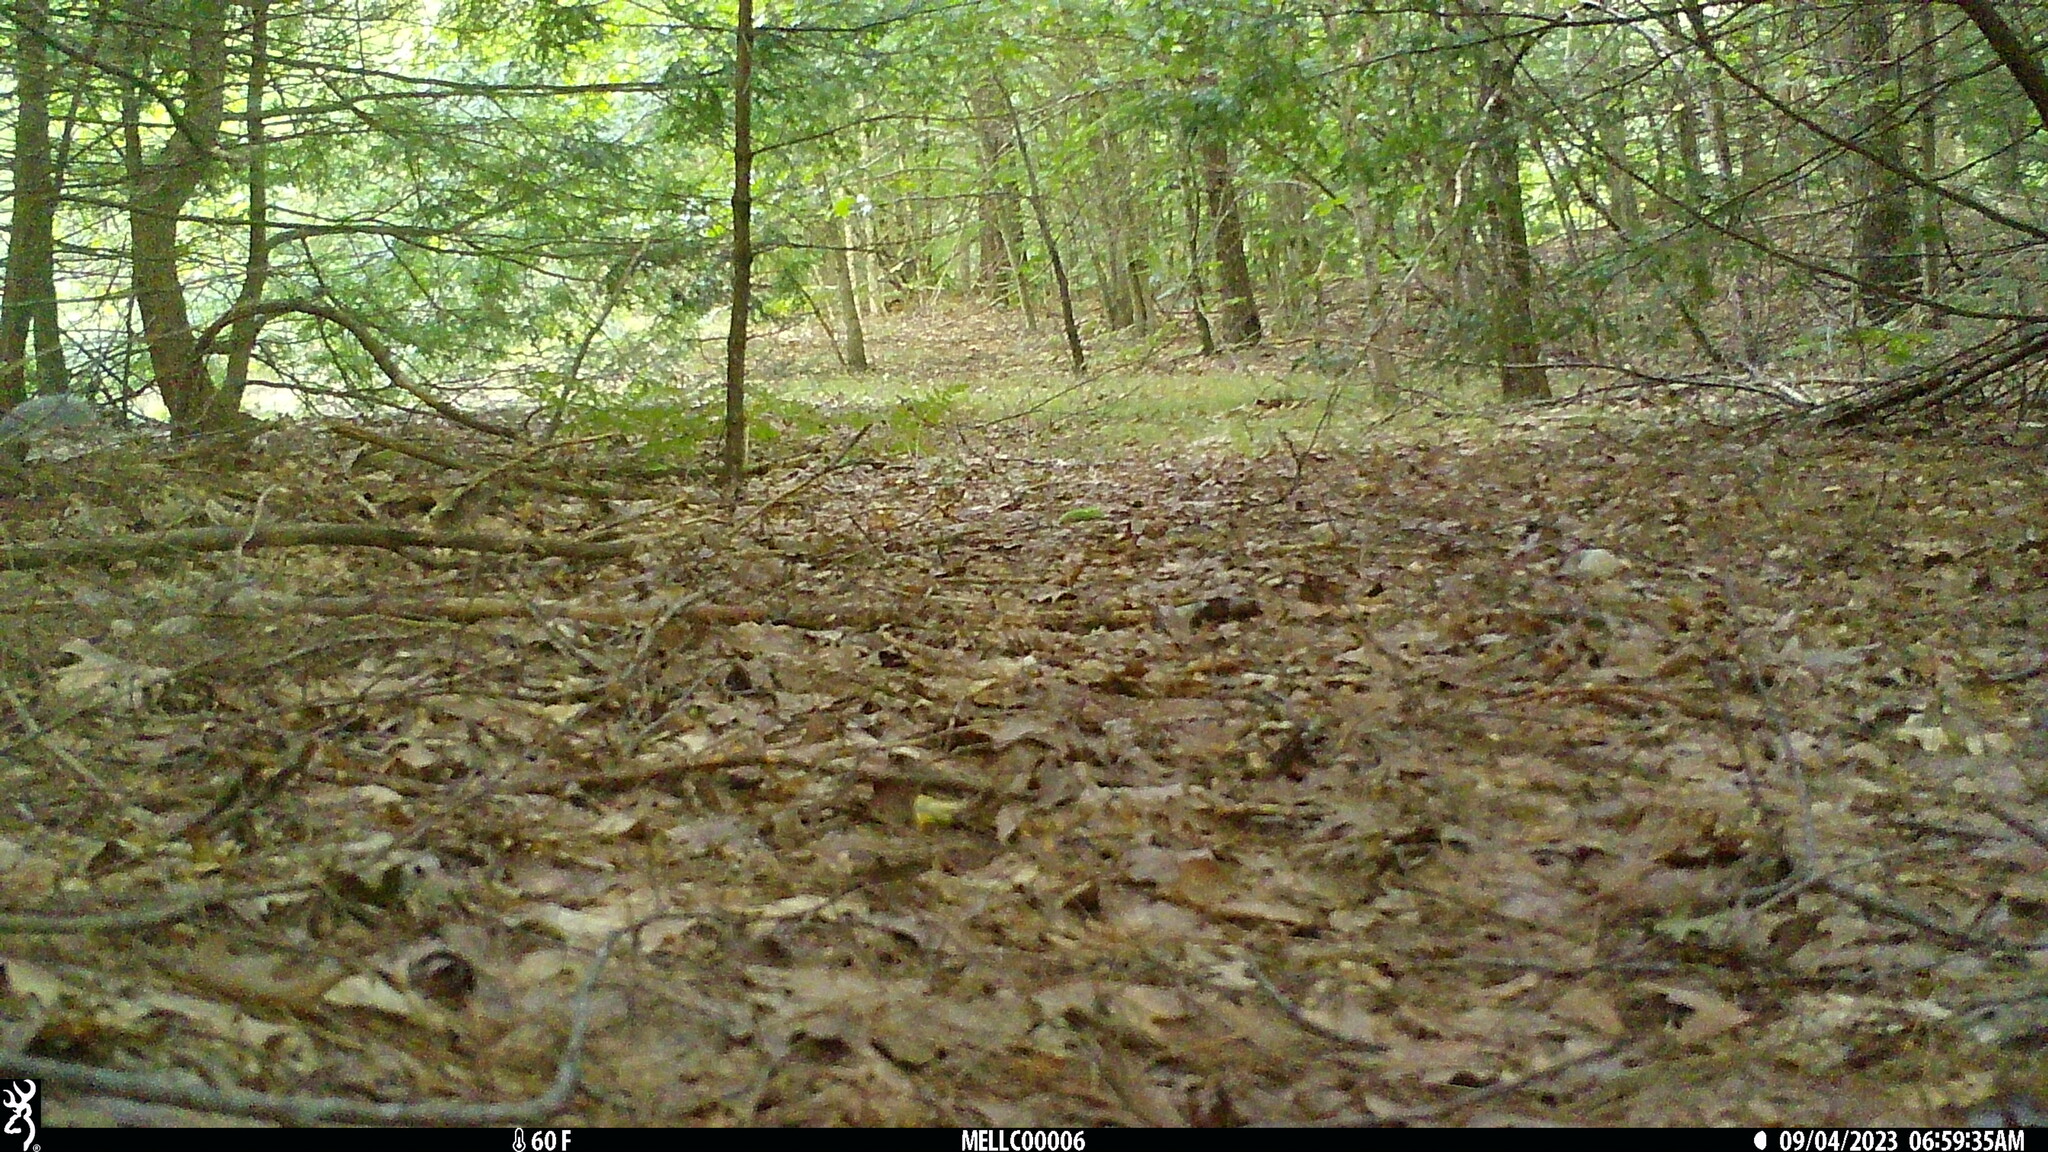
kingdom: Animalia
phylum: Chordata
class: Mammalia
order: Rodentia
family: Sciuridae
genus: Sciurus
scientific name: Sciurus carolinensis
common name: Eastern gray squirrel
